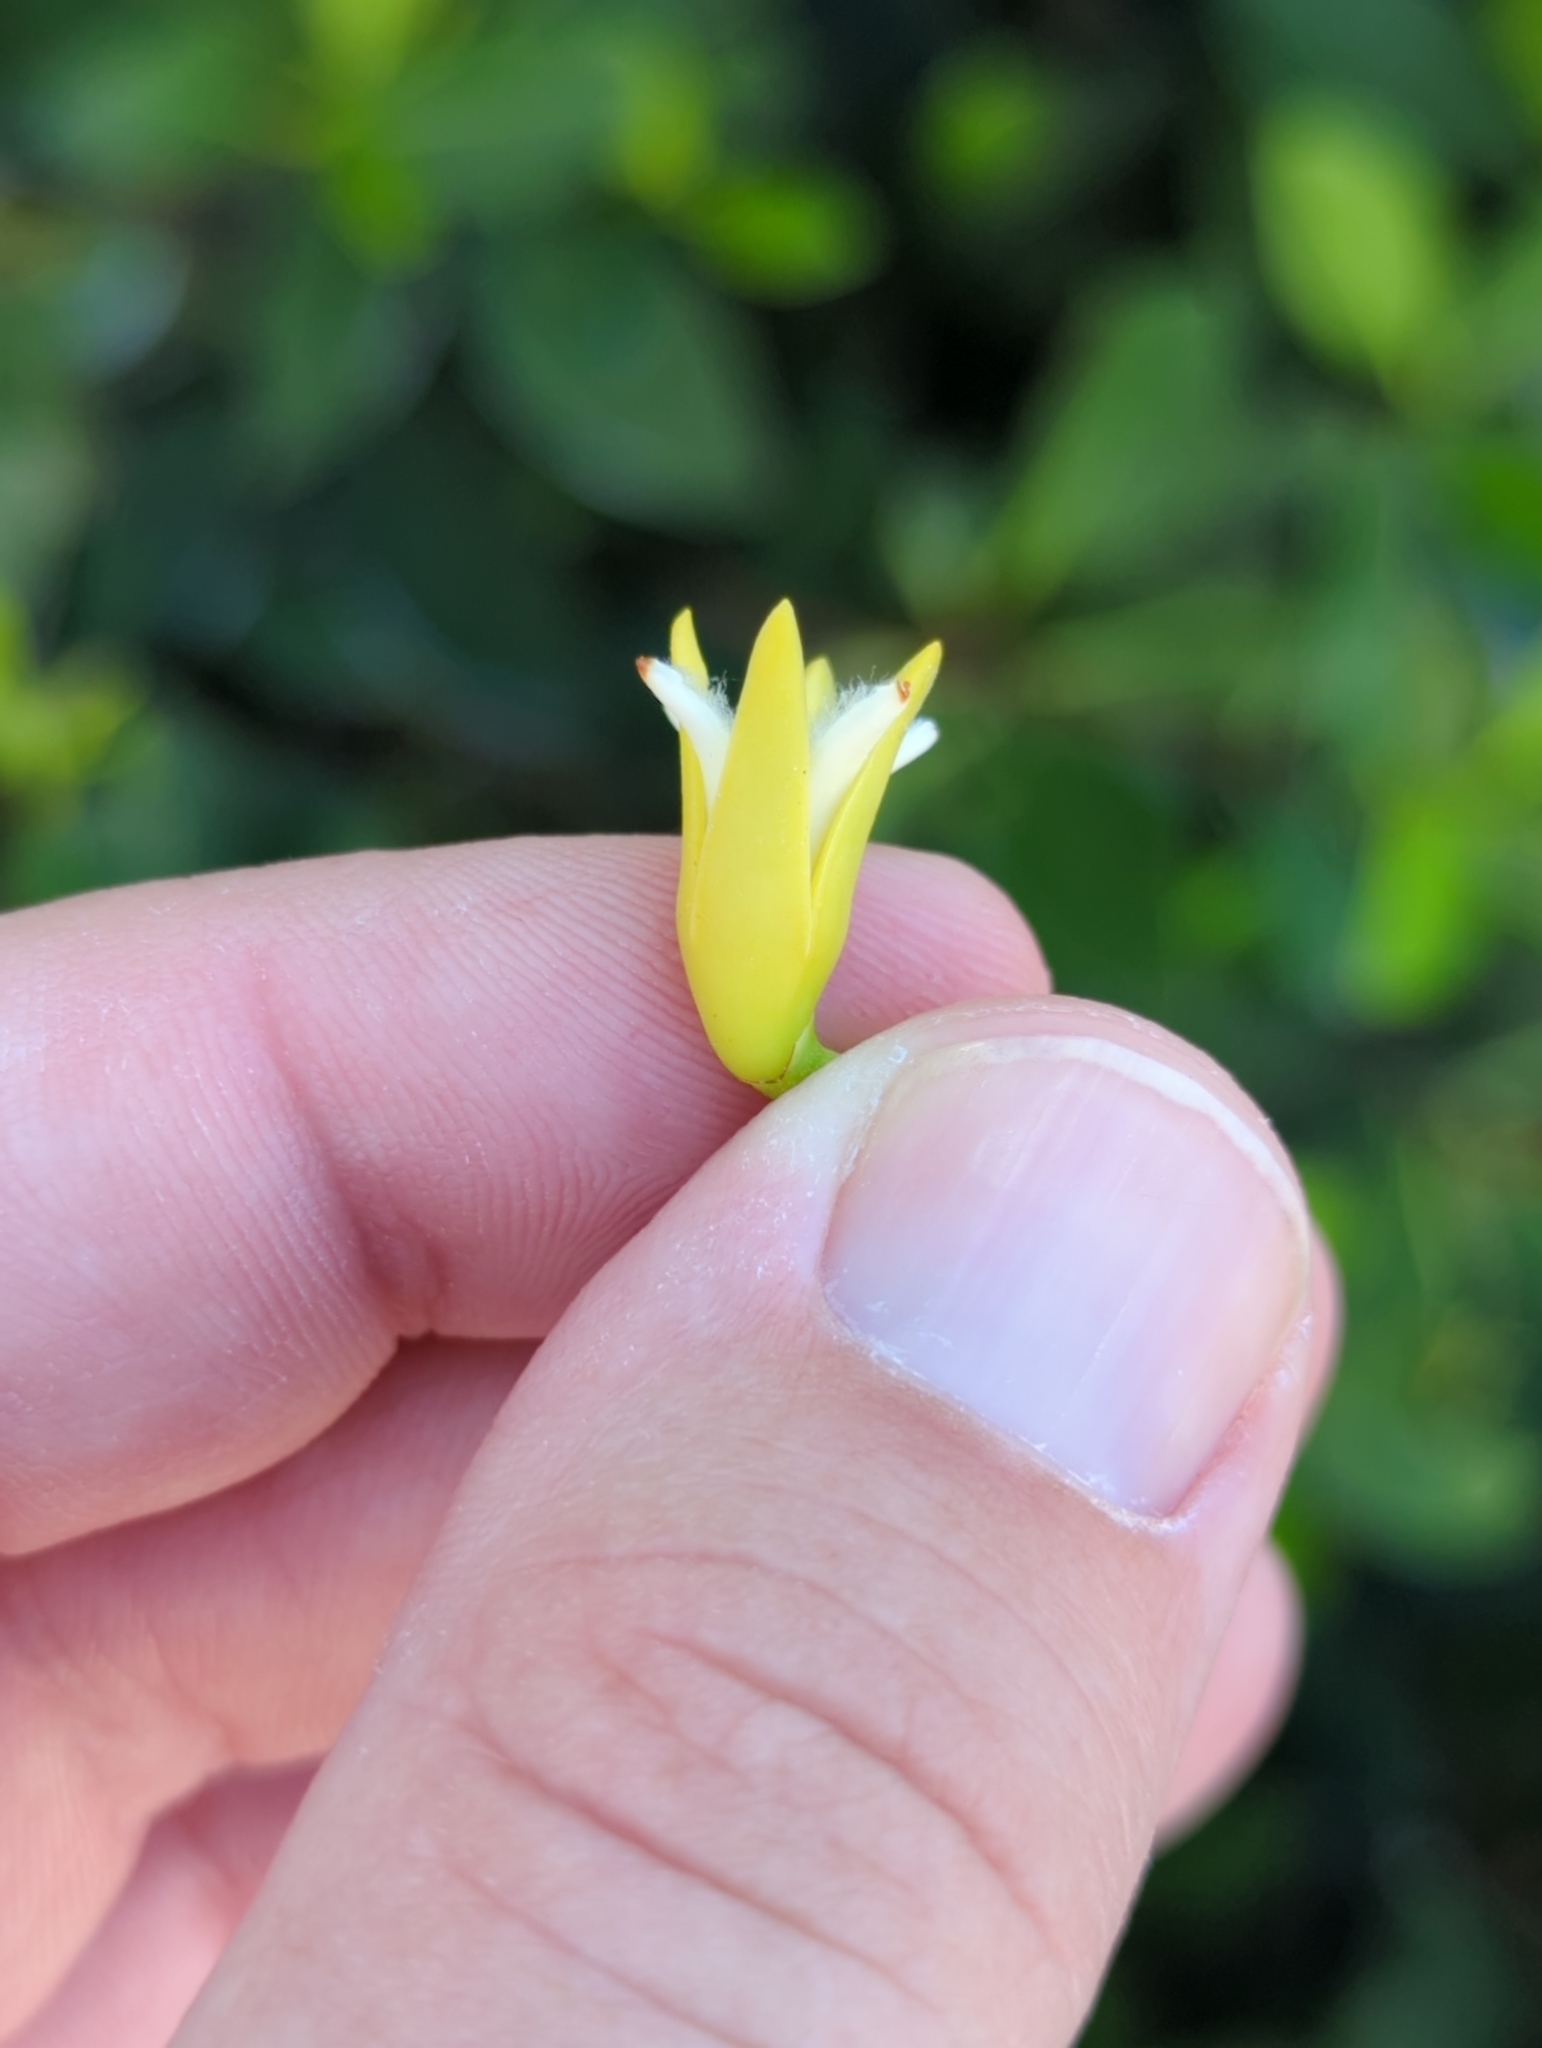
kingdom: Plantae
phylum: Tracheophyta
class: Magnoliopsida
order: Malpighiales
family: Rhizophoraceae
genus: Rhizophora
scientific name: Rhizophora mangle
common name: Red mangrove
